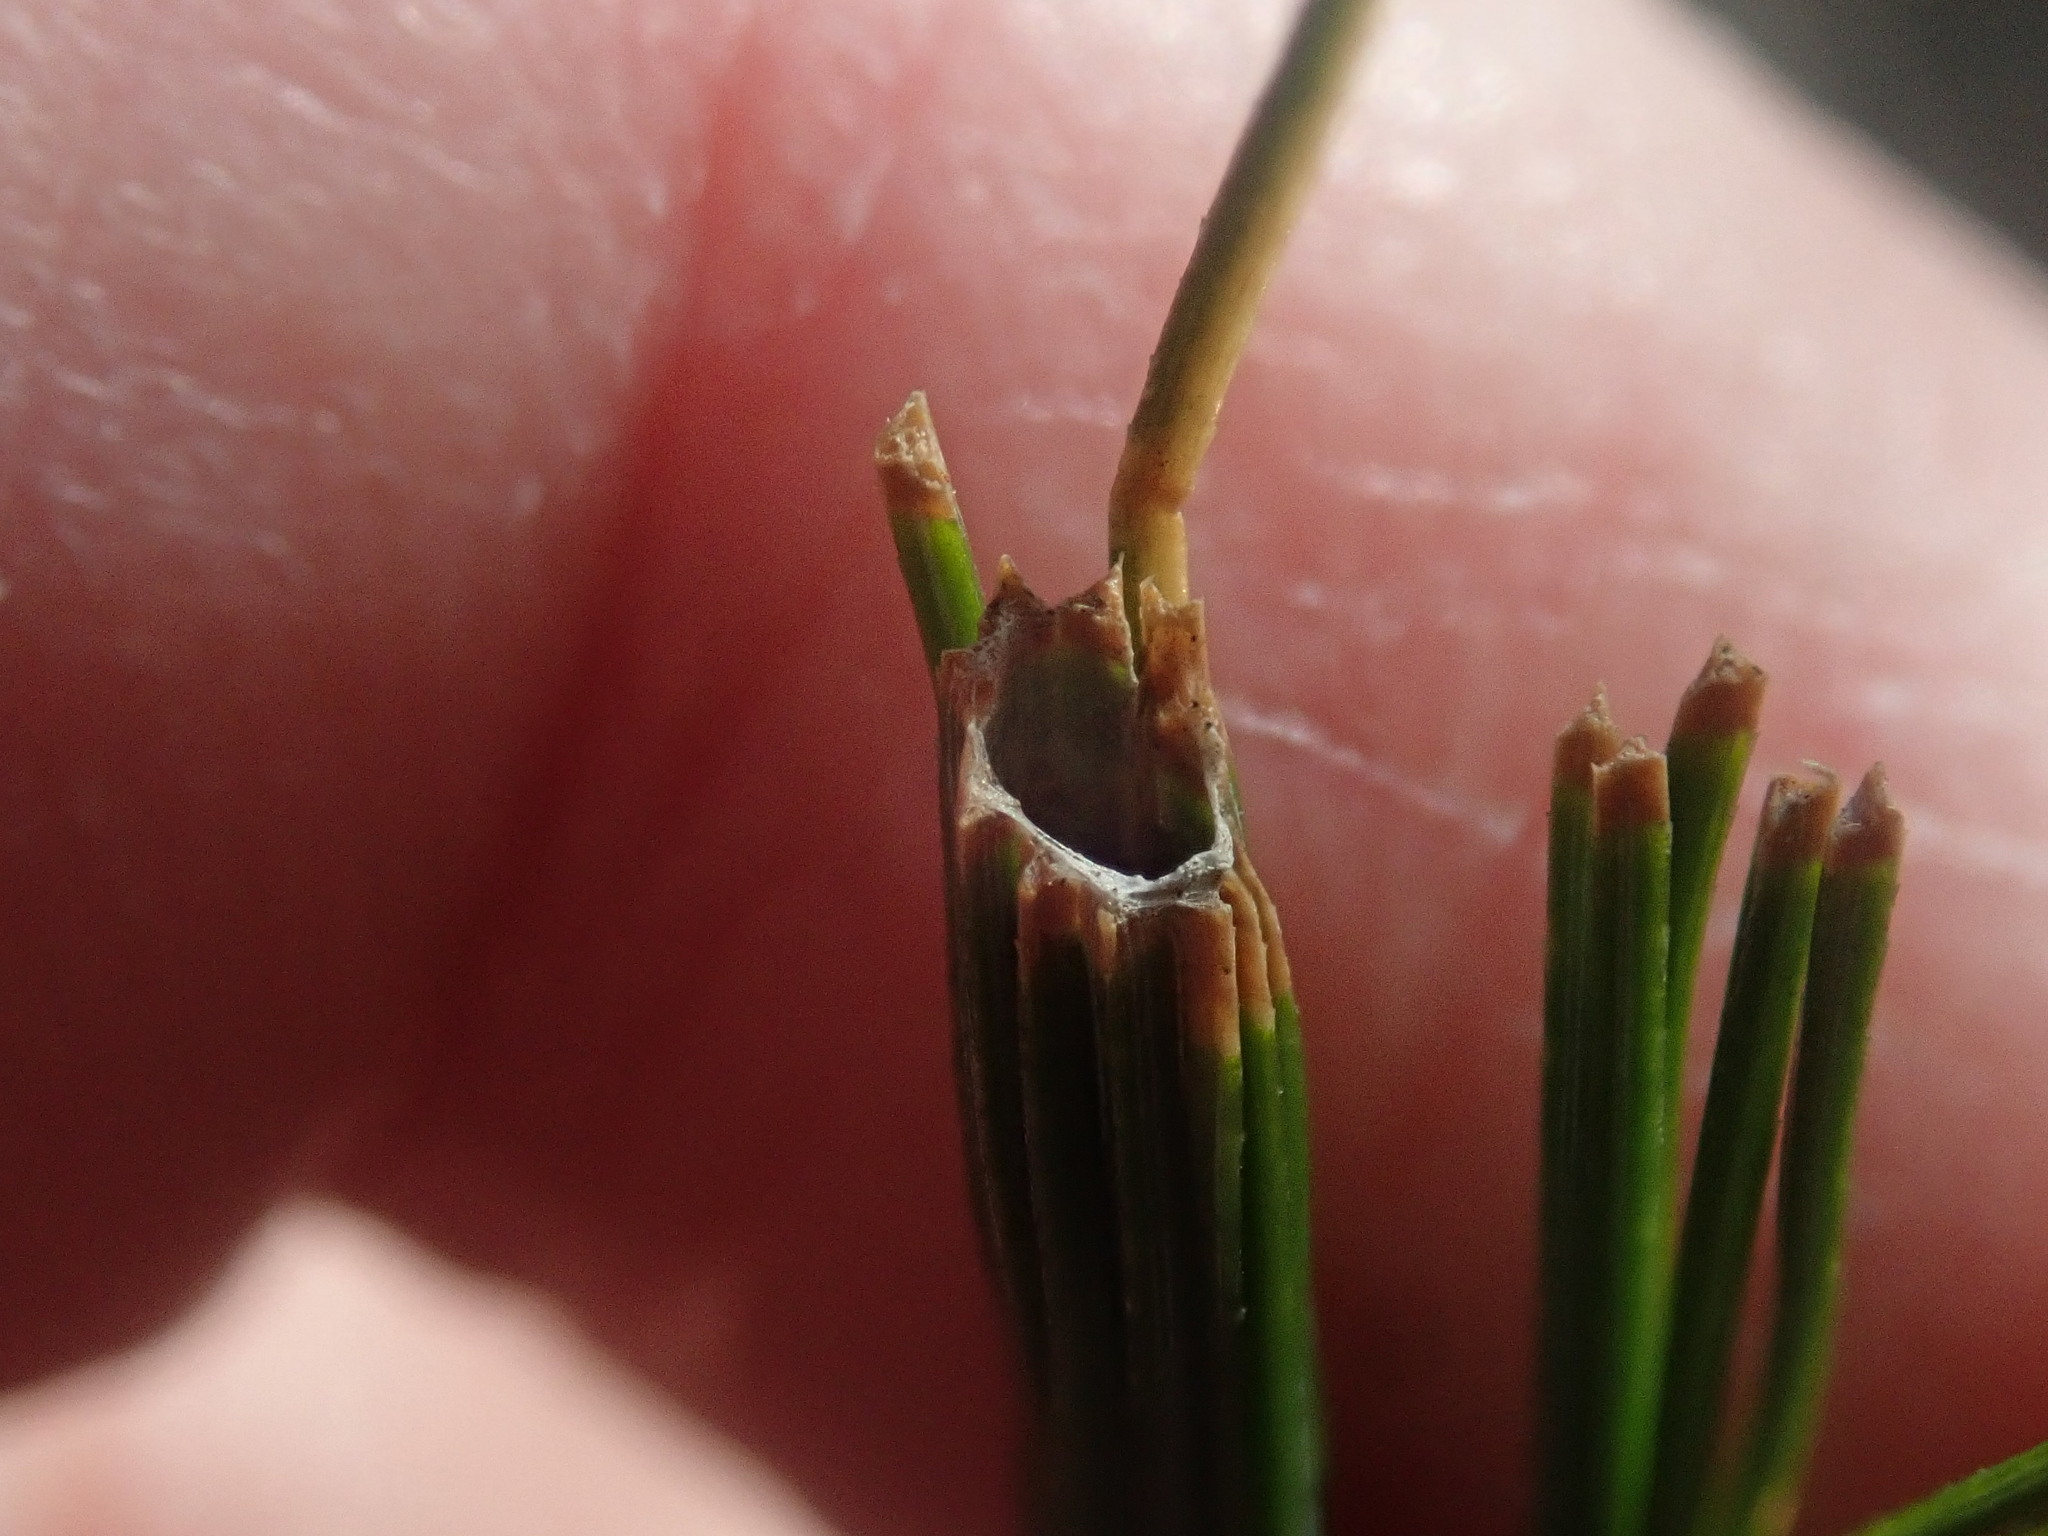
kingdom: Animalia
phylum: Arthropoda
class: Insecta
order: Lepidoptera
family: Tortricidae
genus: Argyrotaenia
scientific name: Argyrotaenia pinatubana
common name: Pine tube moth
